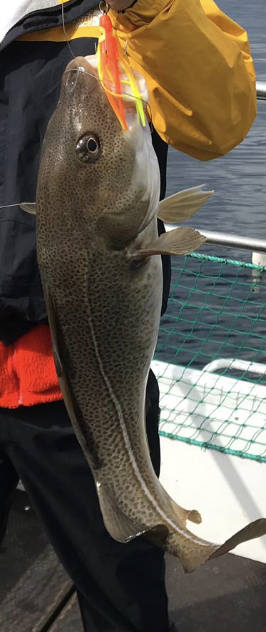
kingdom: Animalia
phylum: Chordata
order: Gadiformes
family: Gadidae
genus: Gadus
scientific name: Gadus morhua
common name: Atlantic cod
